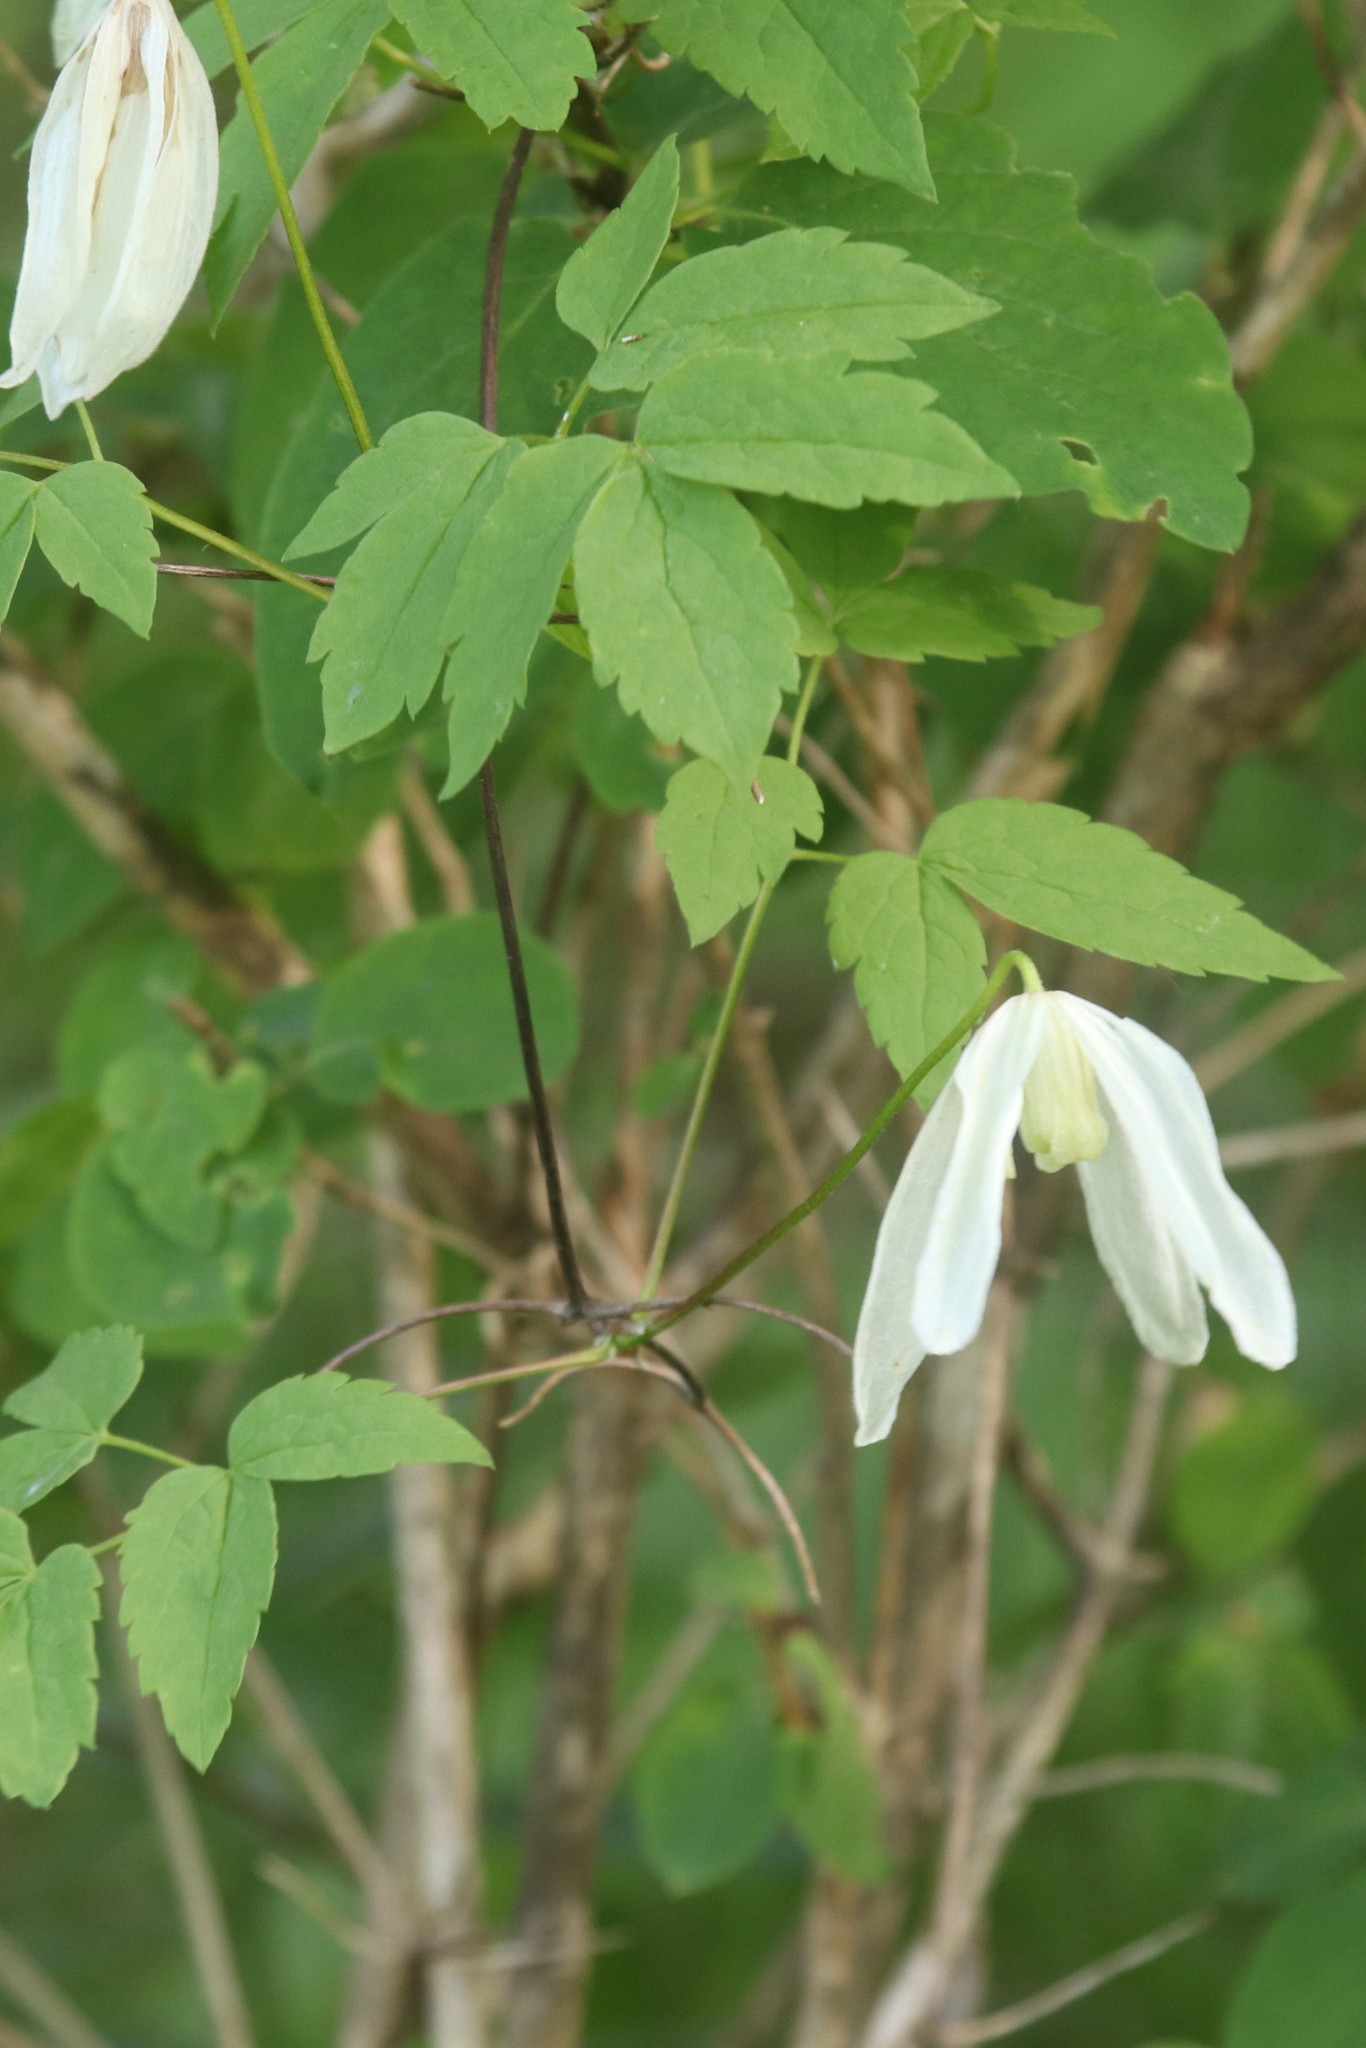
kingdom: Plantae
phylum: Tracheophyta
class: Magnoliopsida
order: Ranunculales
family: Ranunculaceae
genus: Clematis
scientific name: Clematis sibirica
